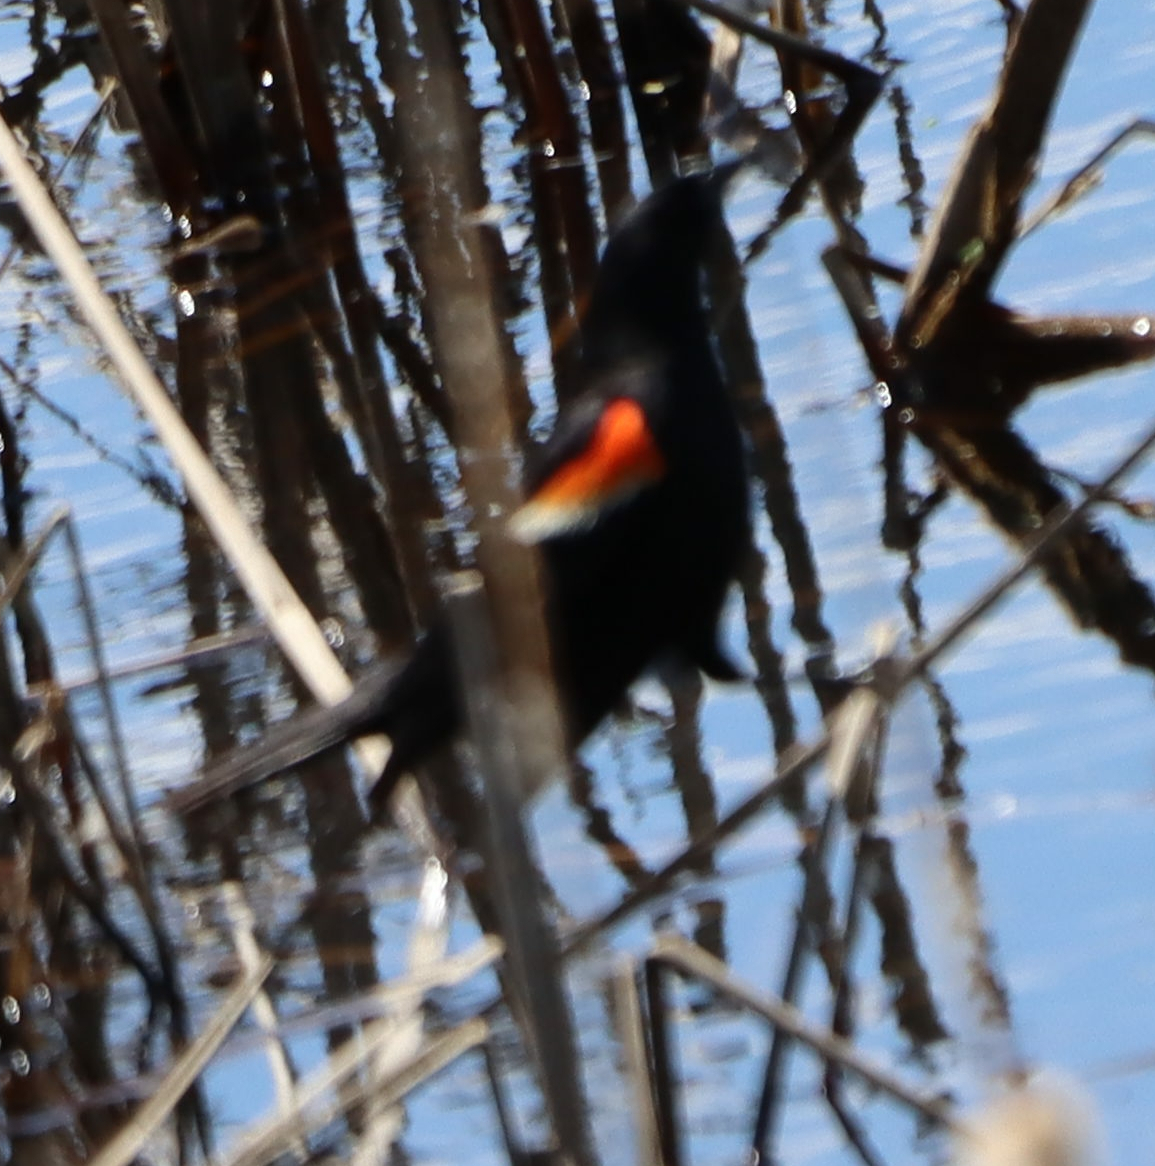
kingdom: Animalia
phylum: Chordata
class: Aves
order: Passeriformes
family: Icteridae
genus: Agelaius
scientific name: Agelaius phoeniceus
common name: Red-winged blackbird
